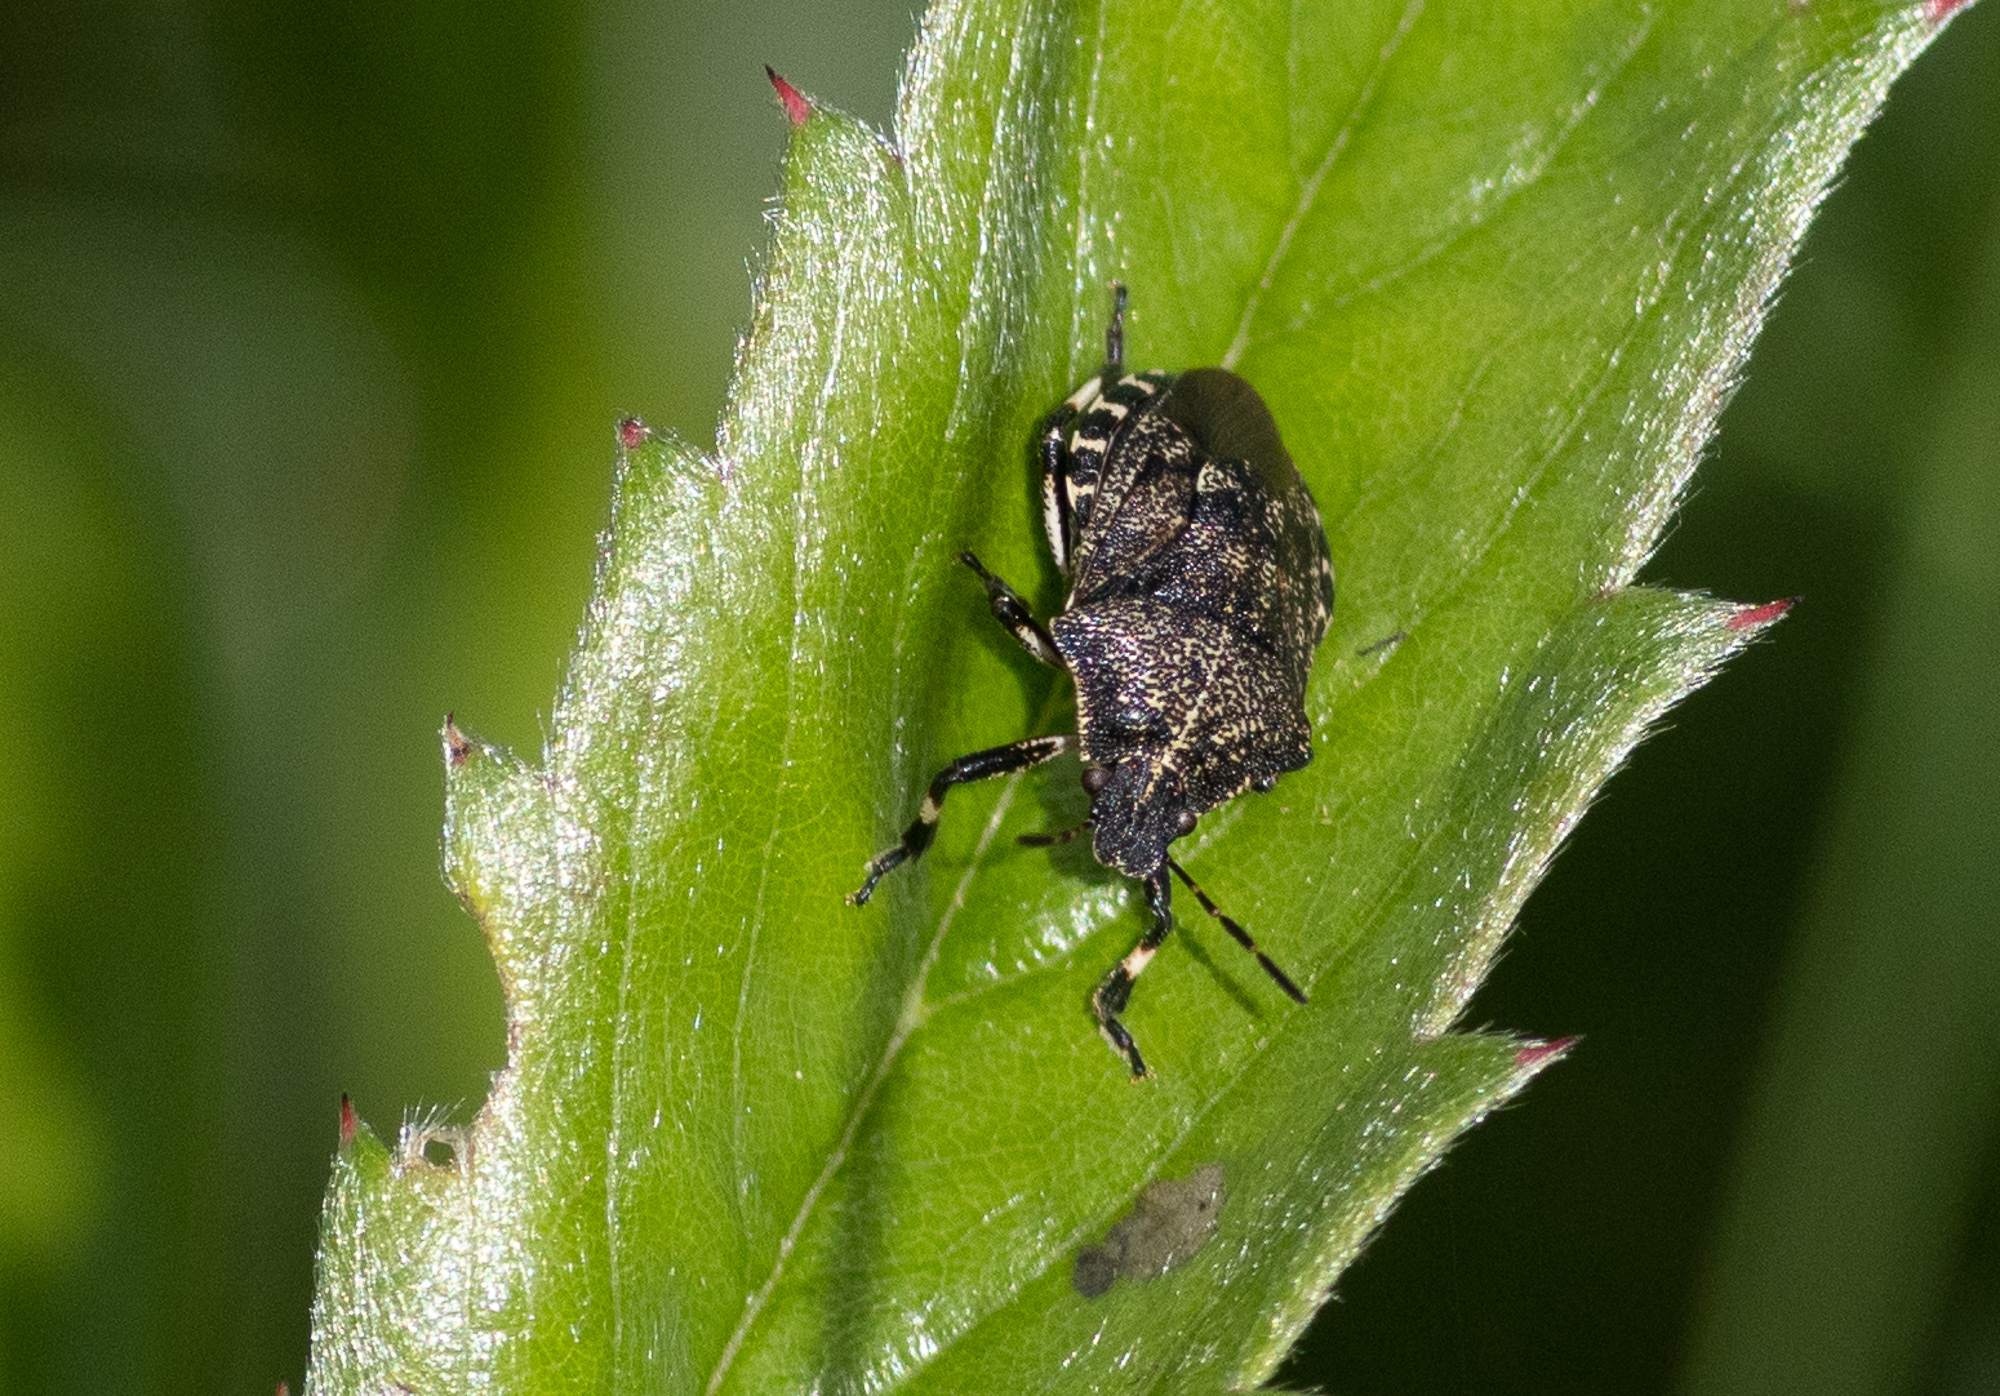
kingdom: Animalia
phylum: Arthropoda
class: Insecta
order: Hemiptera
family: Pentatomidae
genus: Rhacognathus
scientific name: Rhacognathus punctatus
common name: Heather bug
